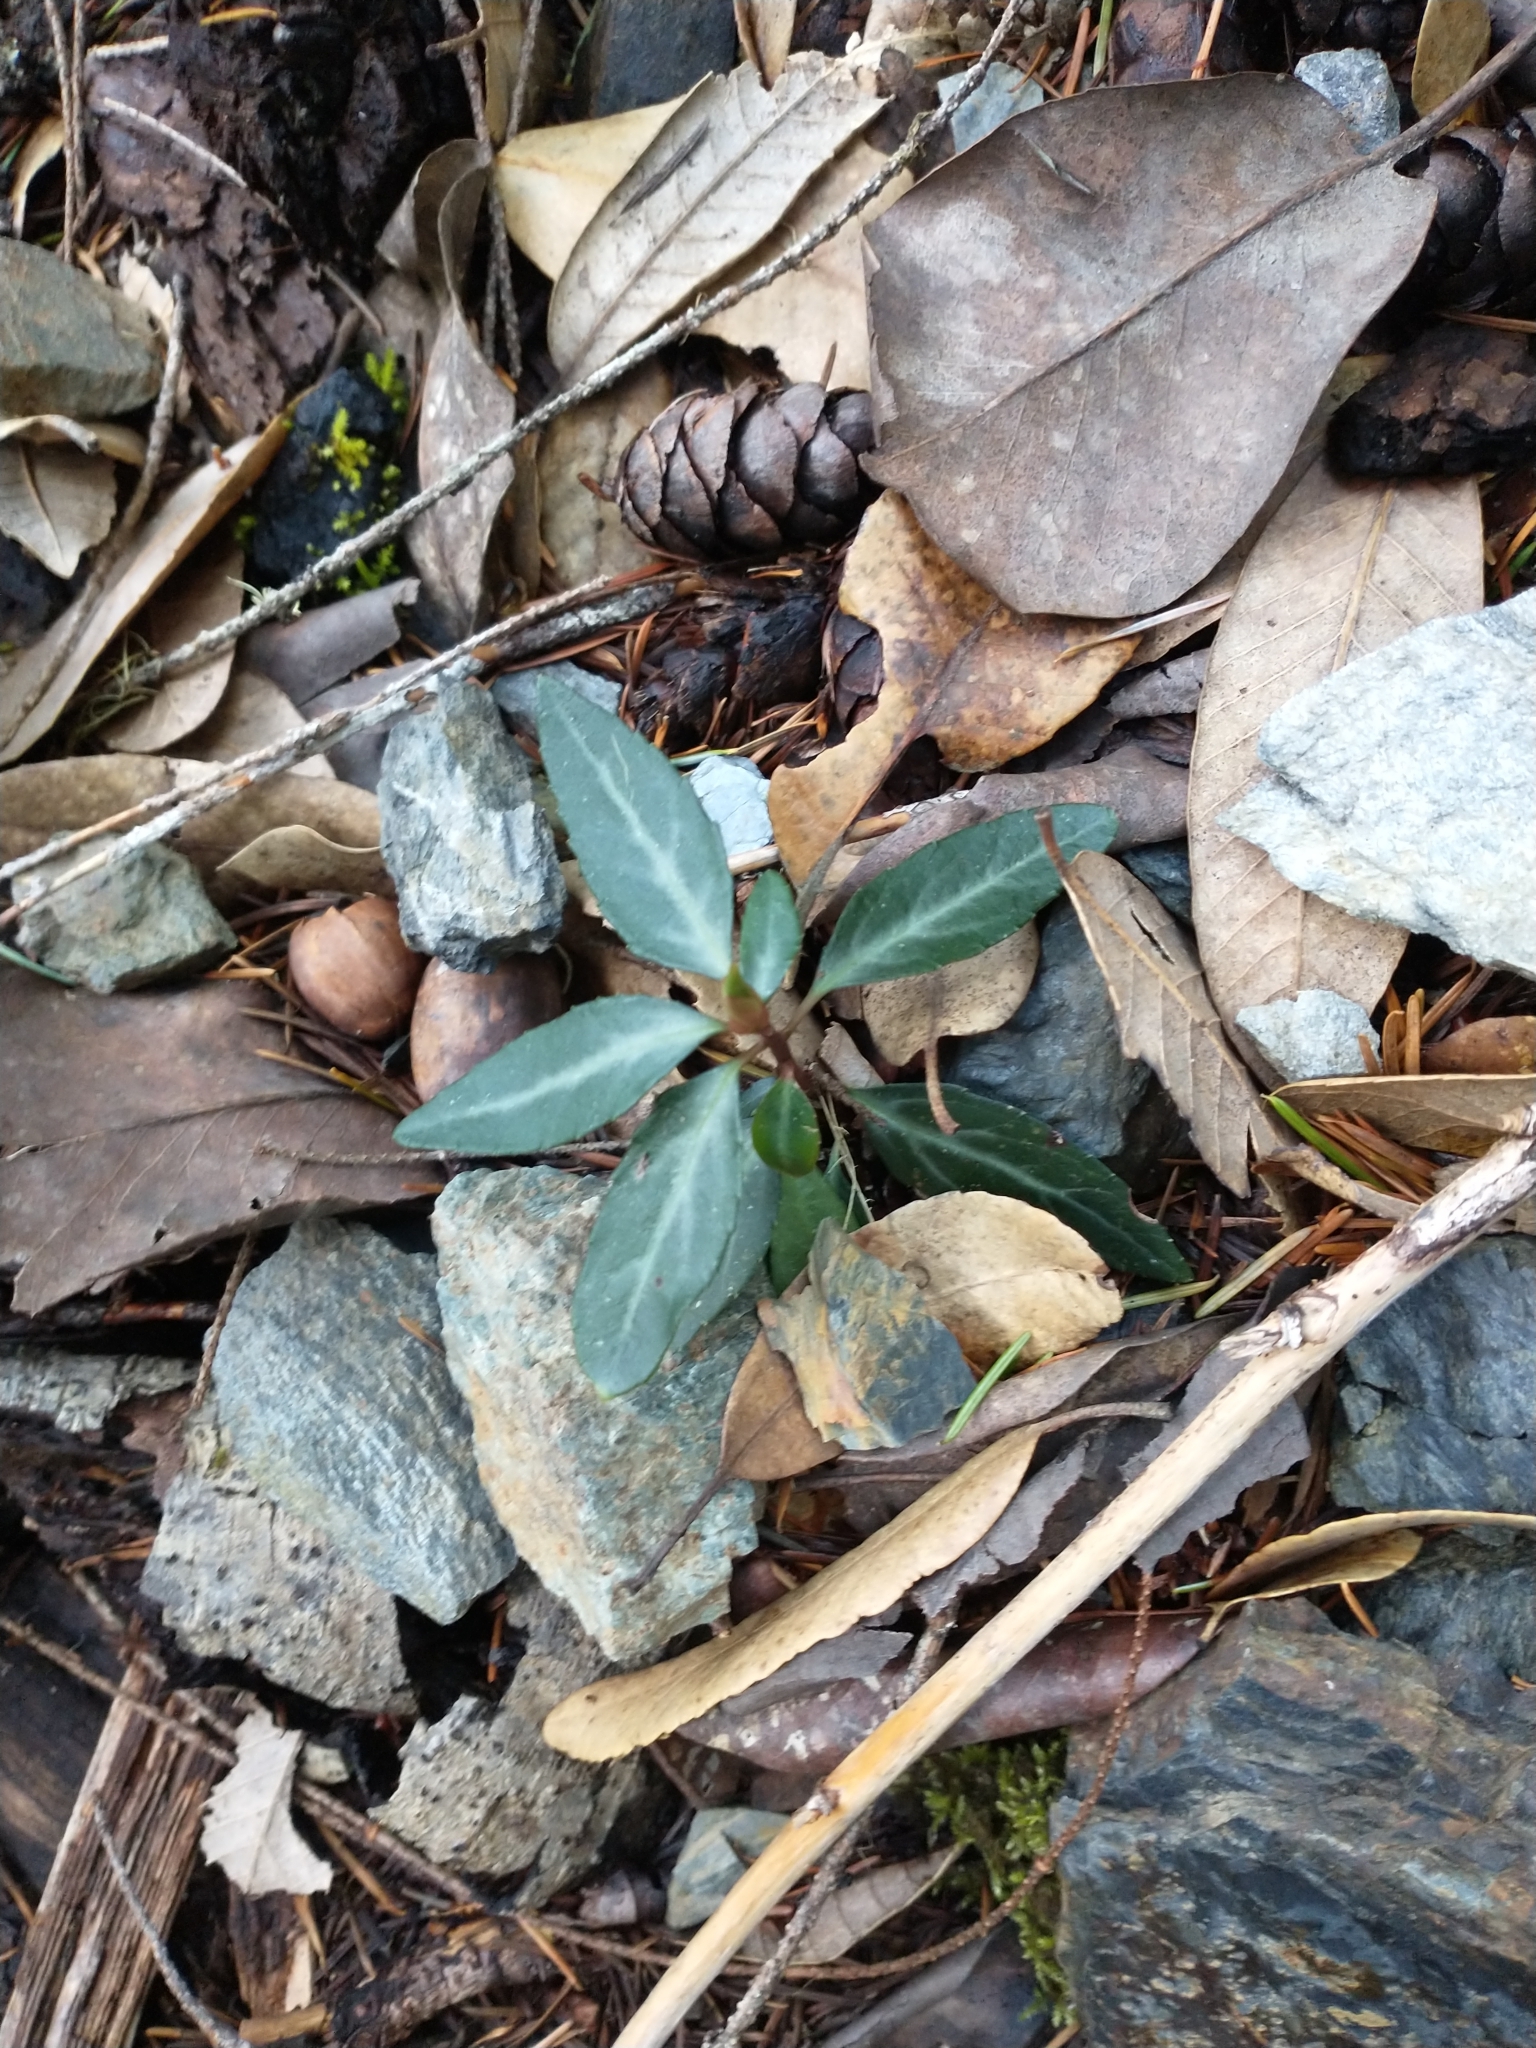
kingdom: Plantae
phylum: Tracheophyta
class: Magnoliopsida
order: Ericales
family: Ericaceae
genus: Chimaphila
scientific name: Chimaphila menziesii
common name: Menzies' pipsissewa
